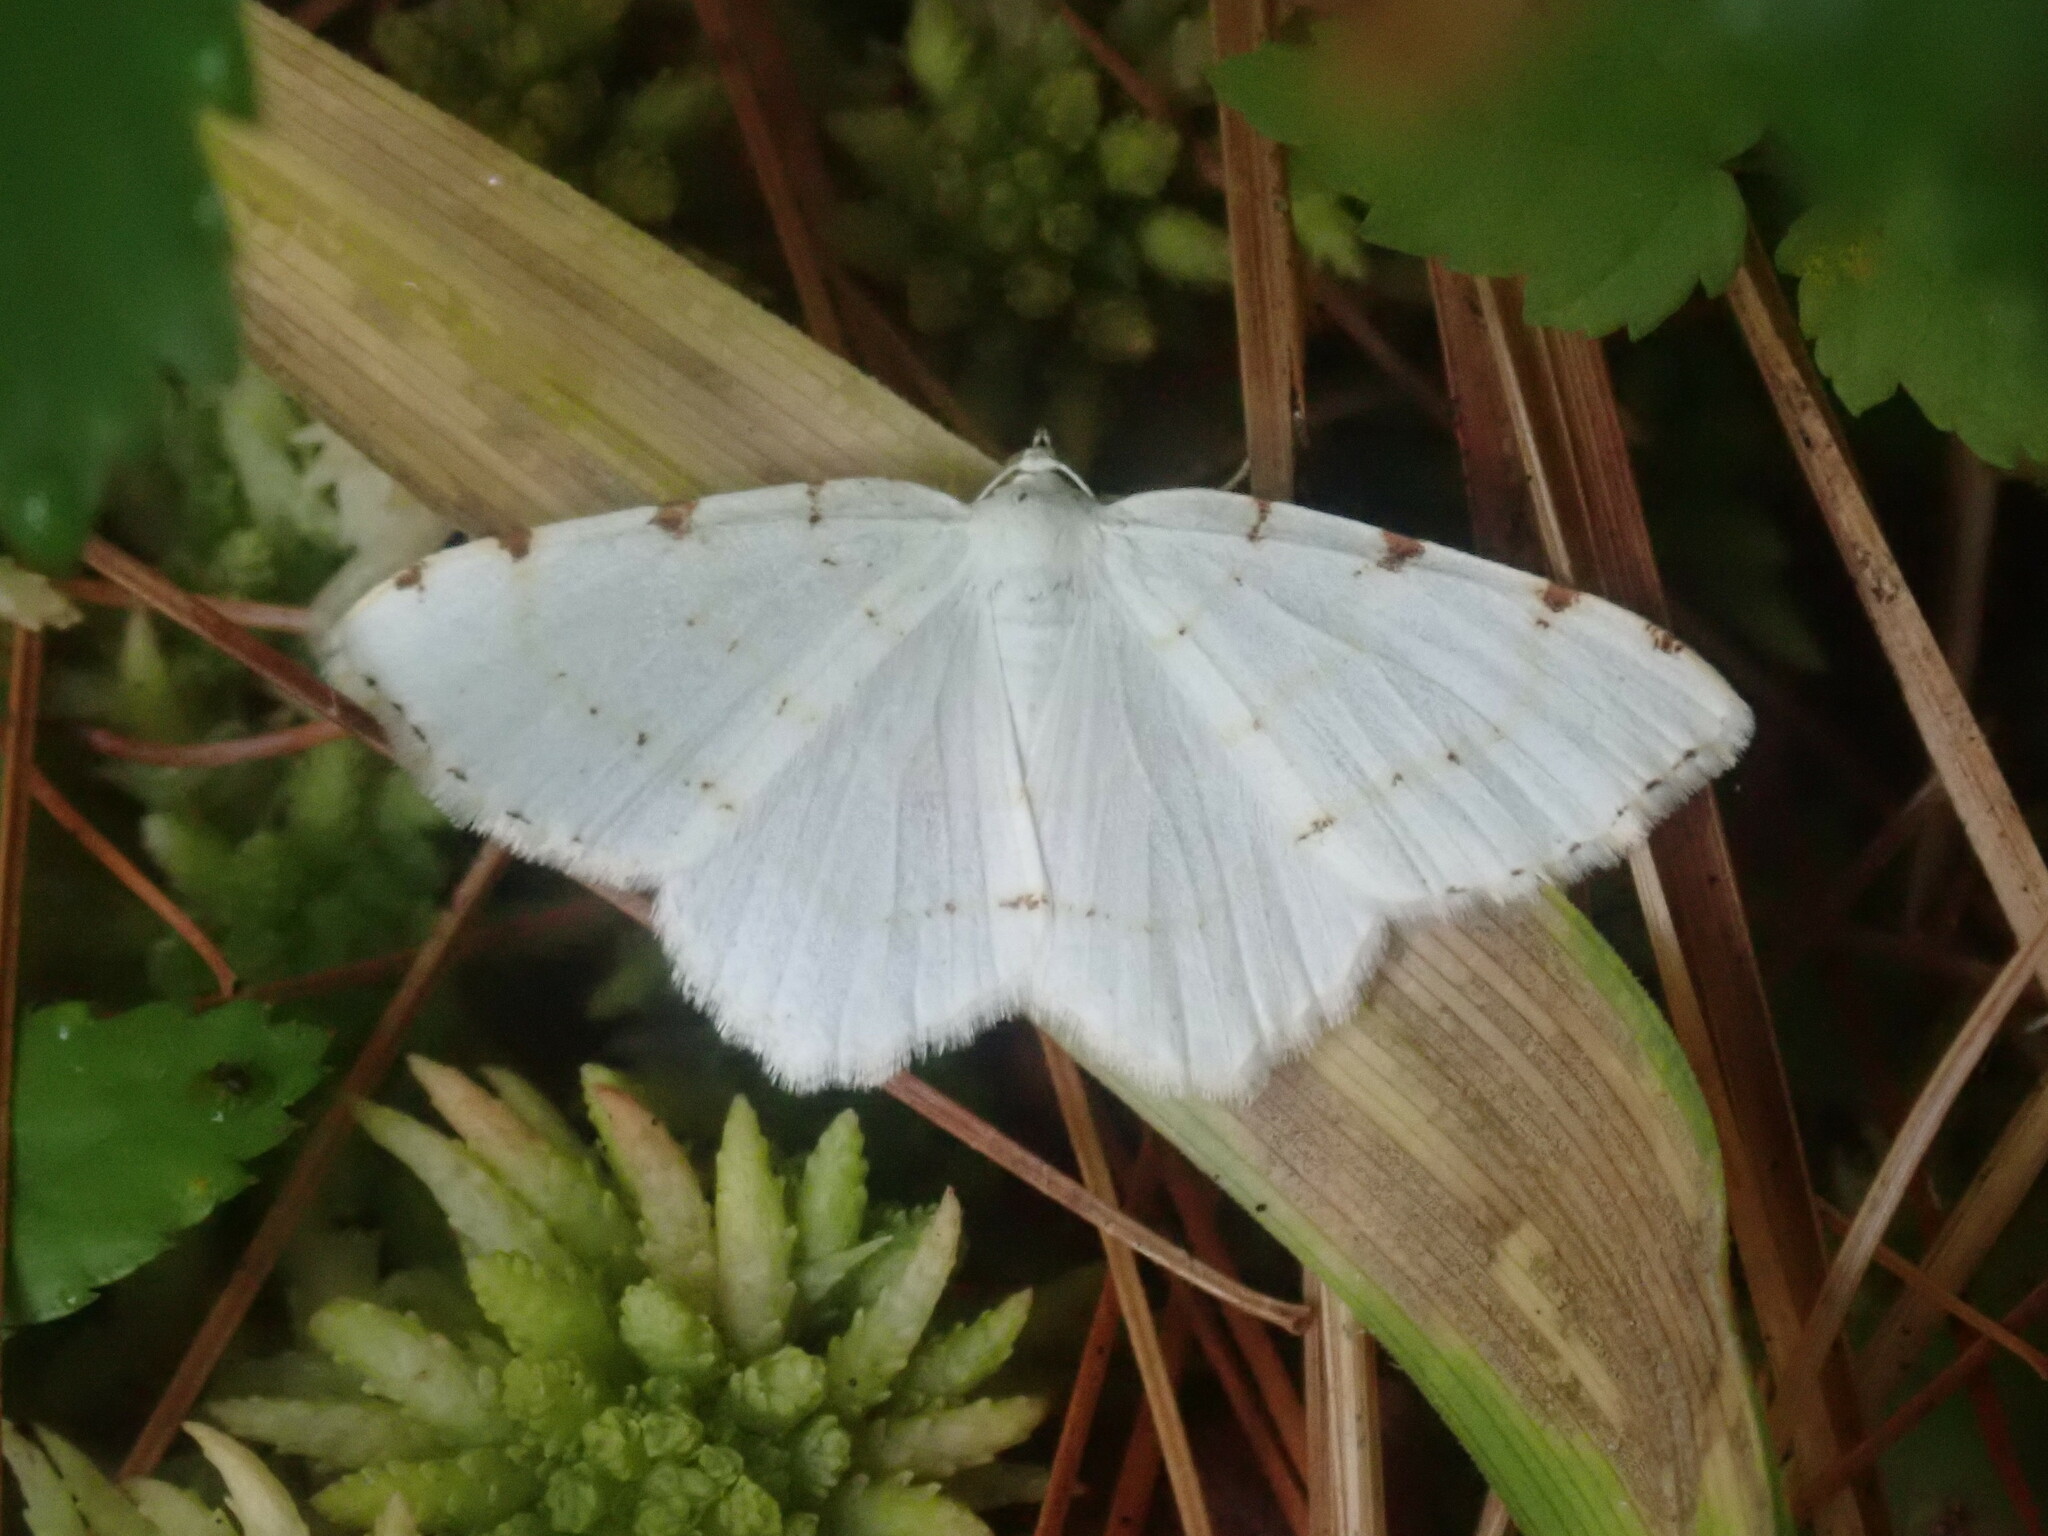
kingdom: Animalia
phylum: Arthropoda
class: Insecta
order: Lepidoptera
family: Geometridae
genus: Macaria
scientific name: Macaria pustularia
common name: Lesser maple spanworm moth
